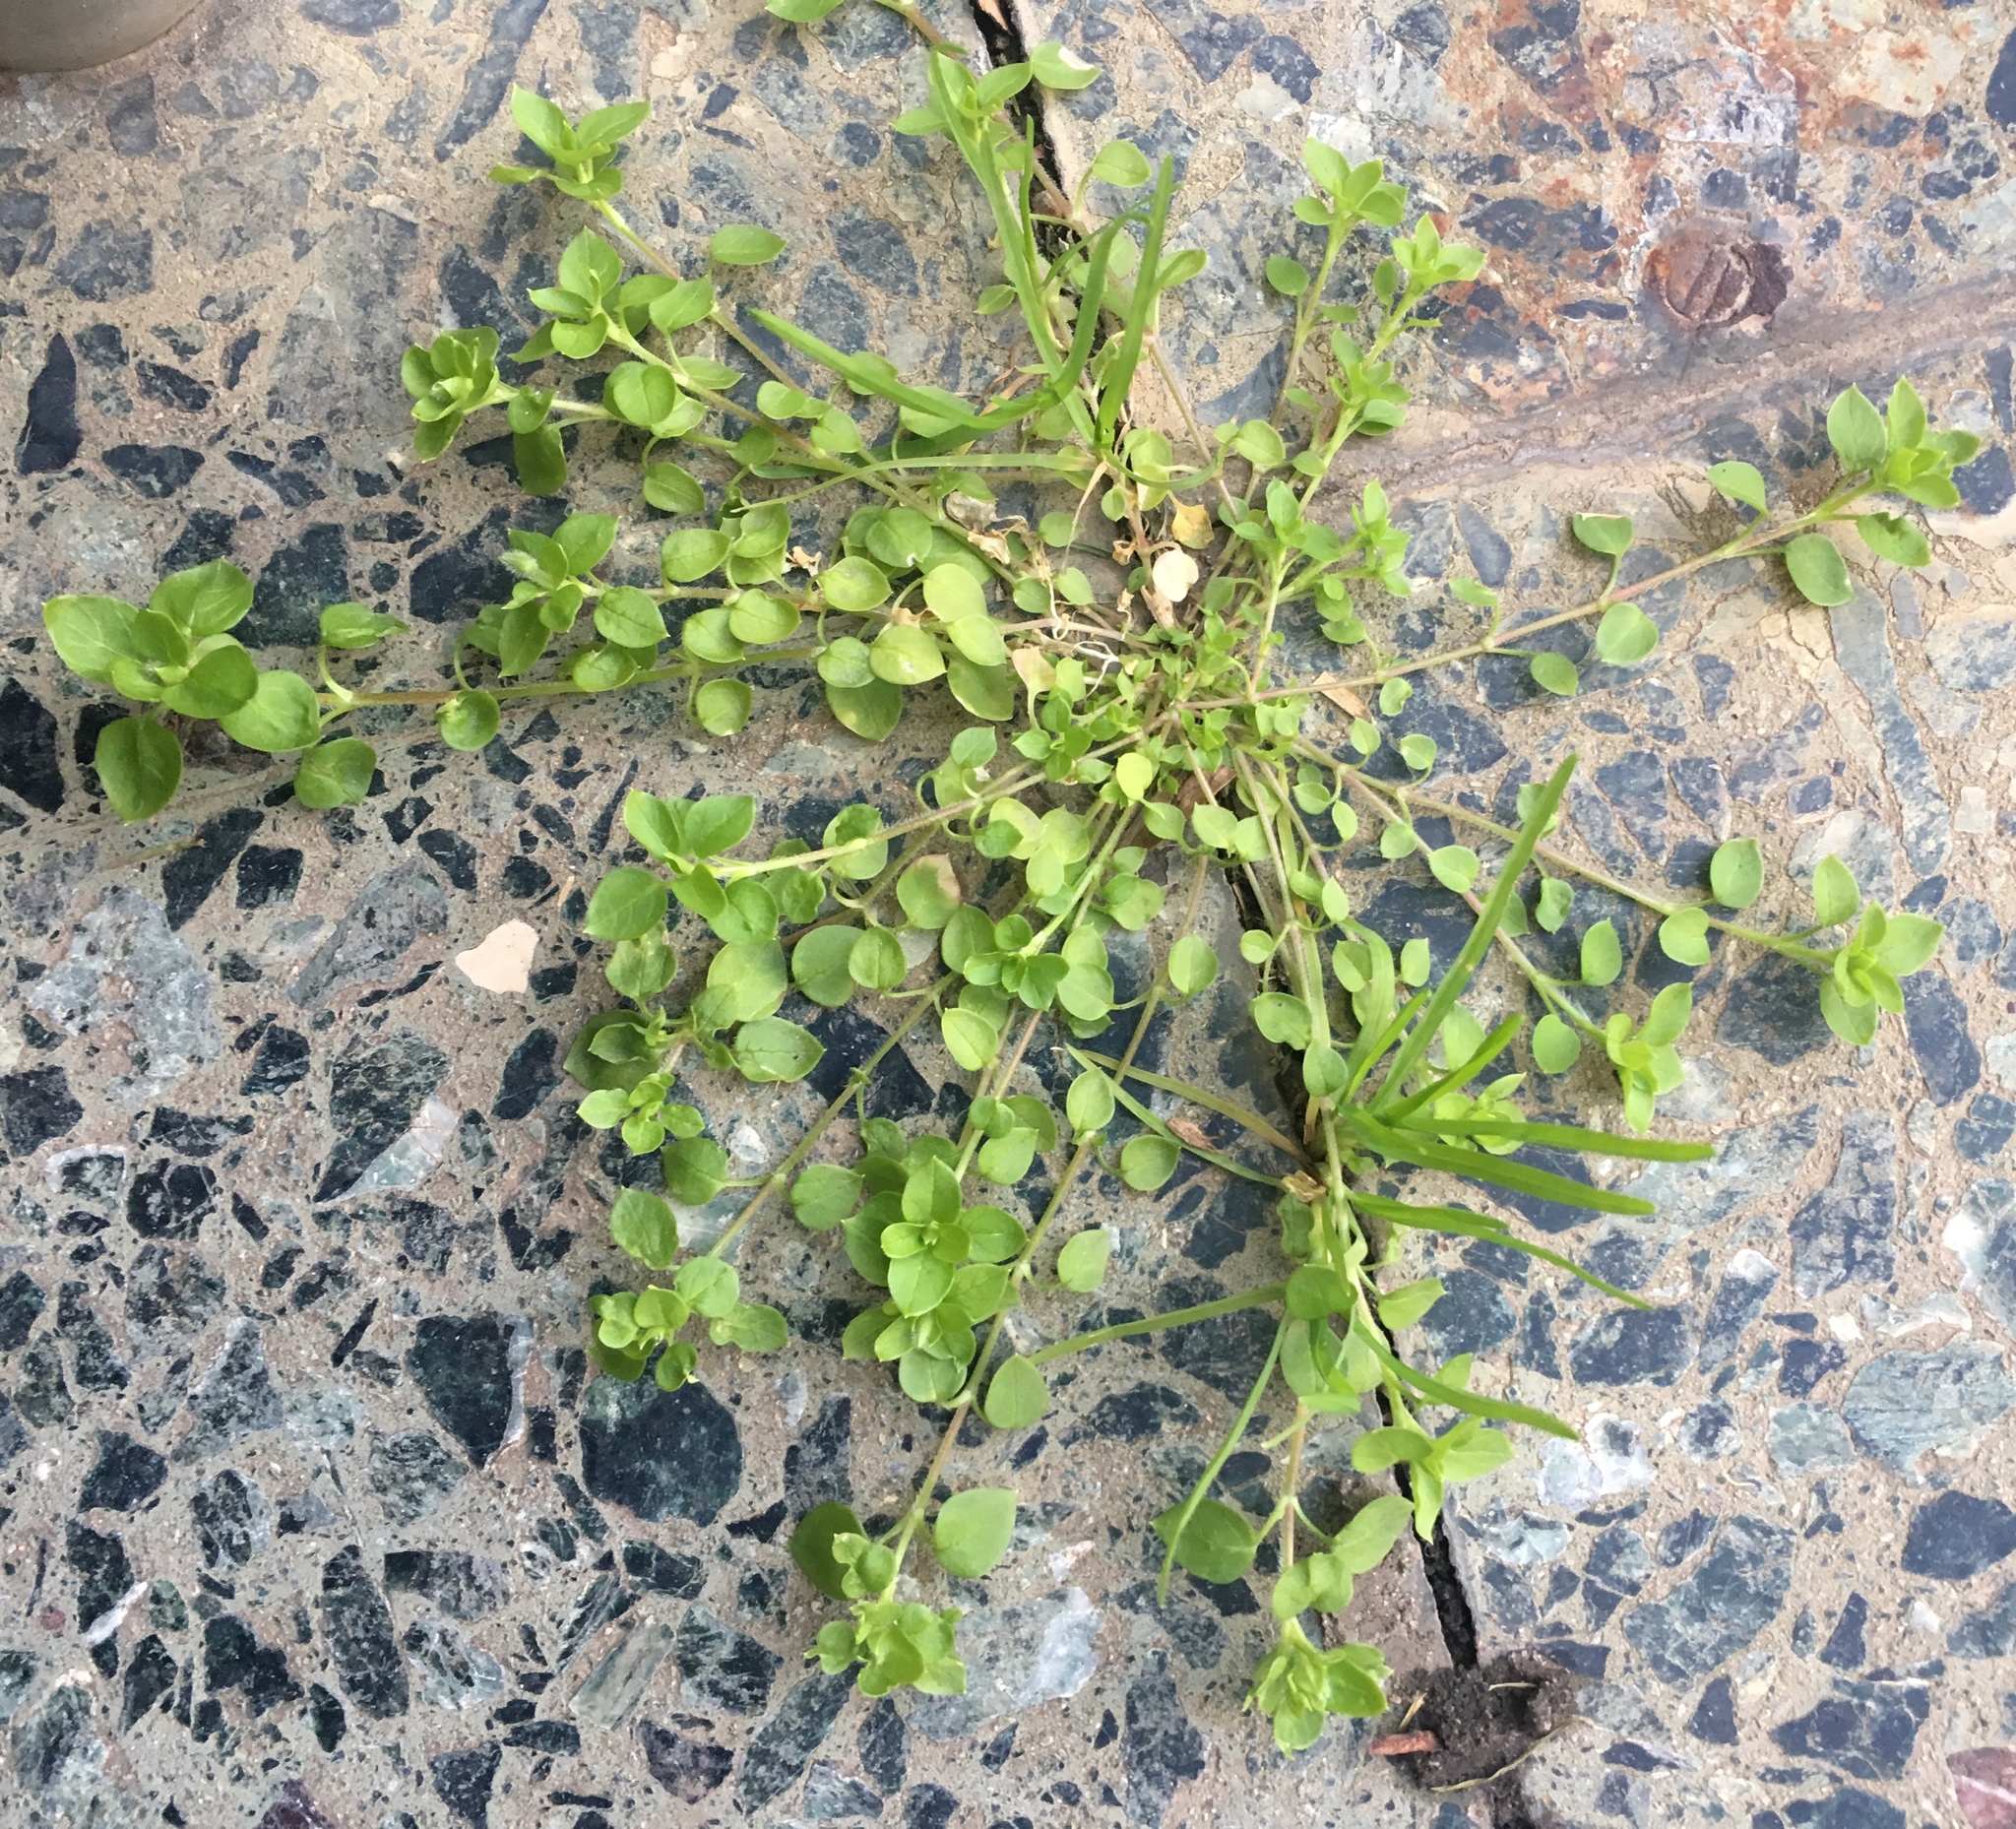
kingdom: Plantae
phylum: Tracheophyta
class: Magnoliopsida
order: Caryophyllales
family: Caryophyllaceae
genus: Stellaria
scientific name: Stellaria media
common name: Common chickweed
